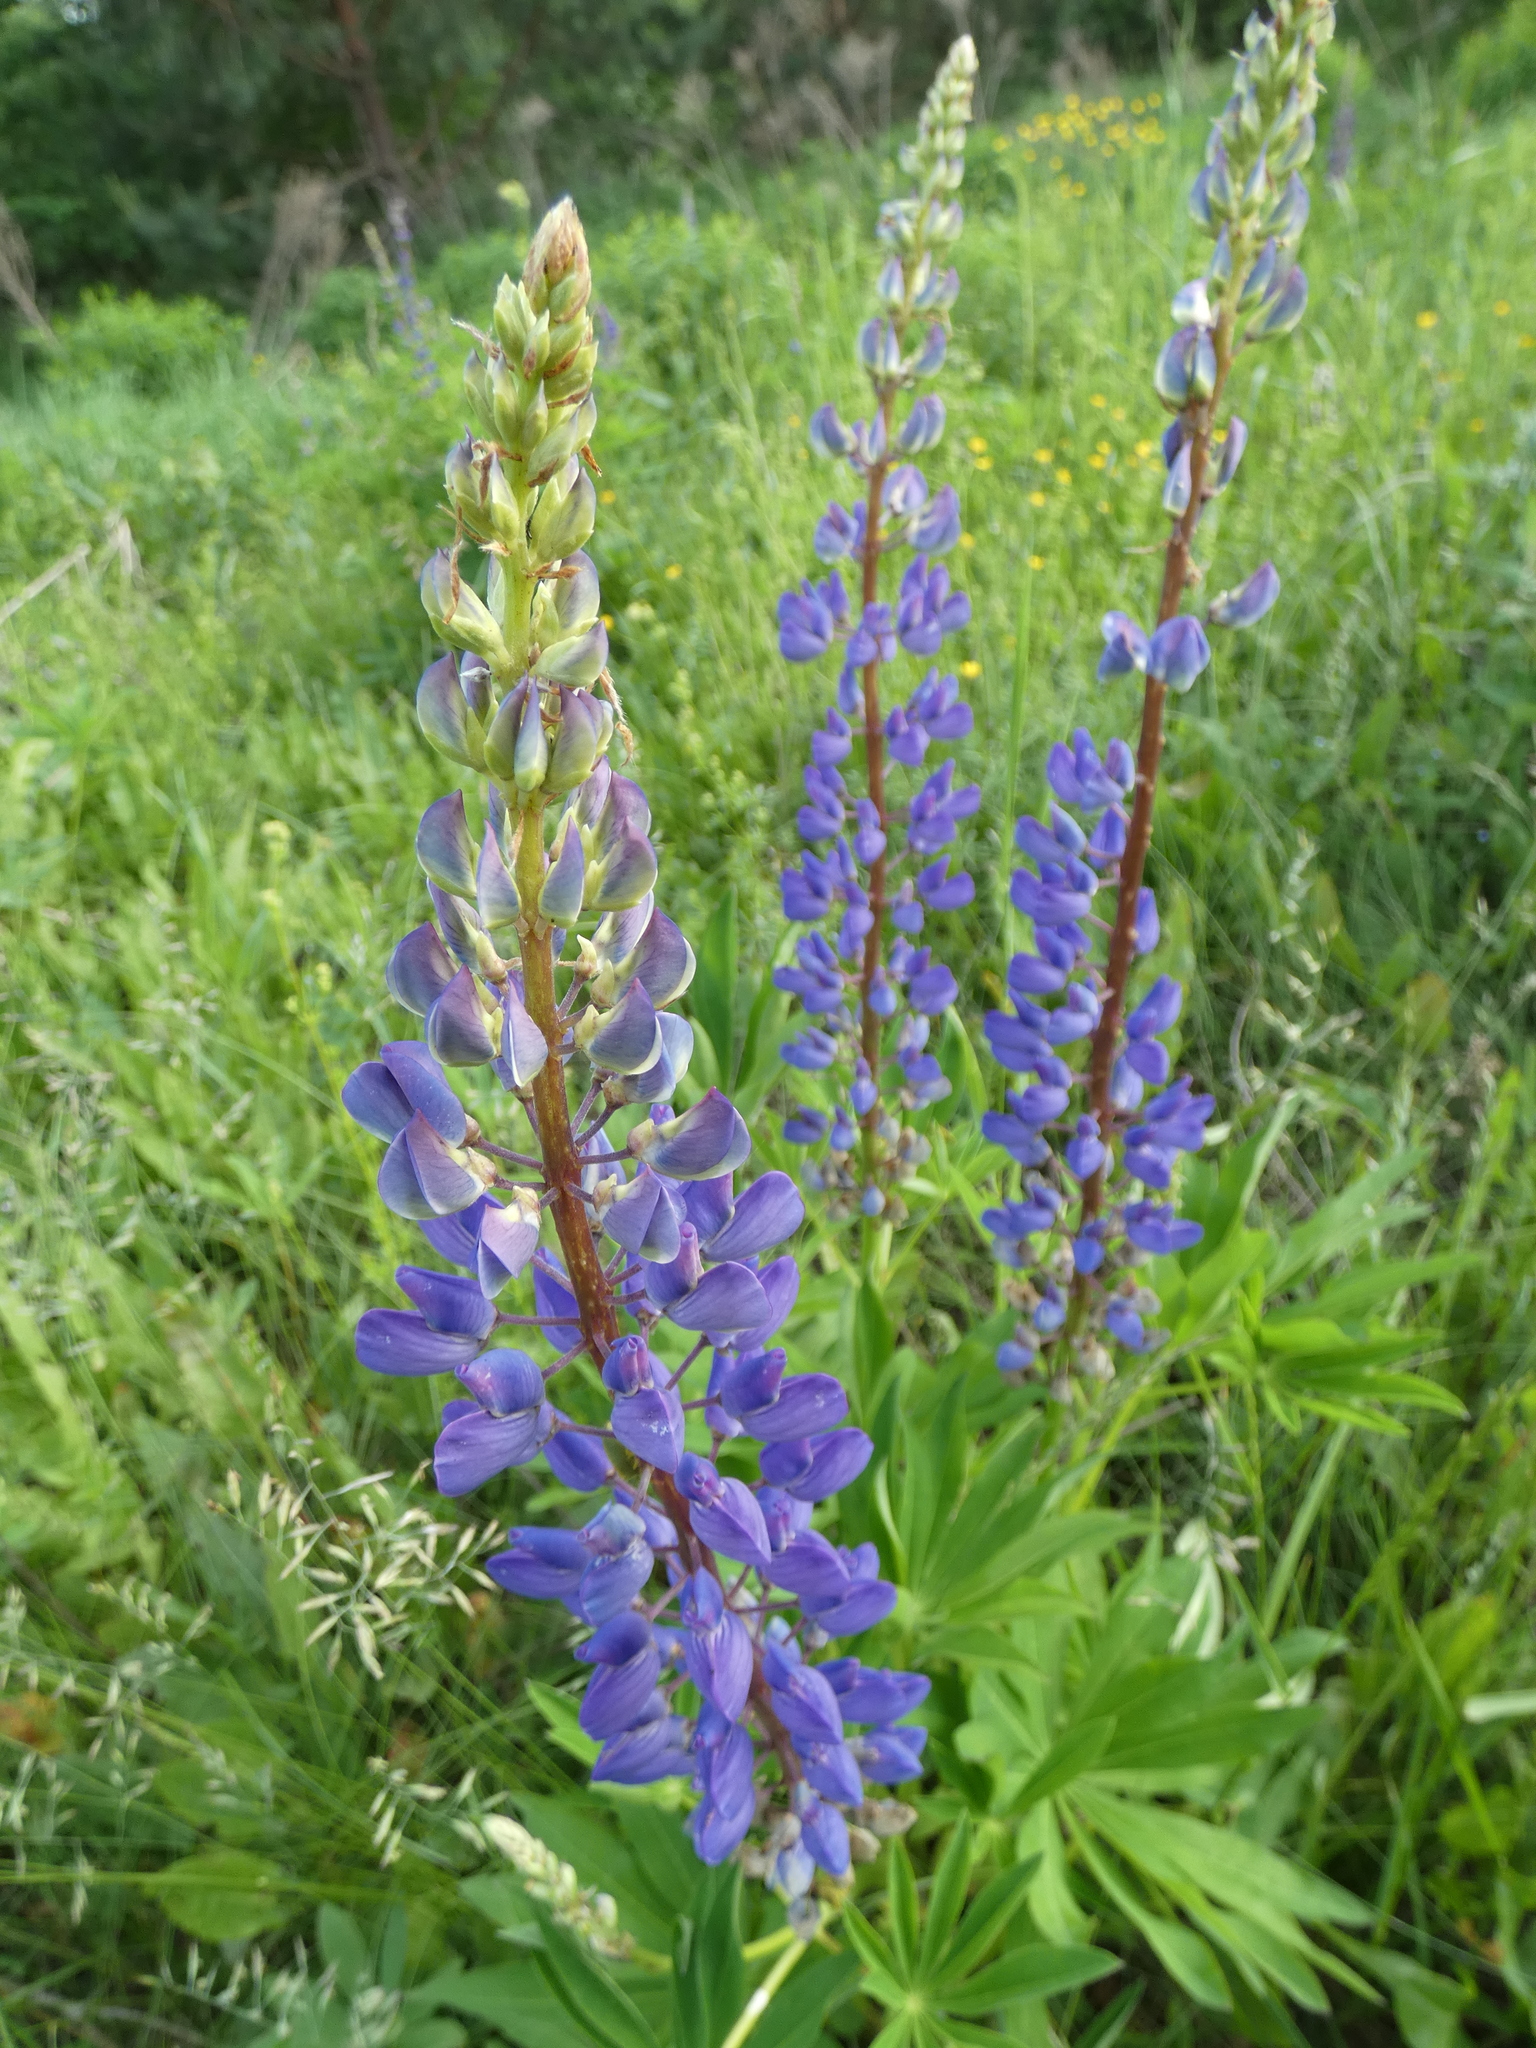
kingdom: Plantae
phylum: Tracheophyta
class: Magnoliopsida
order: Fabales
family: Fabaceae
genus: Lupinus
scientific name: Lupinus polyphyllus
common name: Garden lupin
